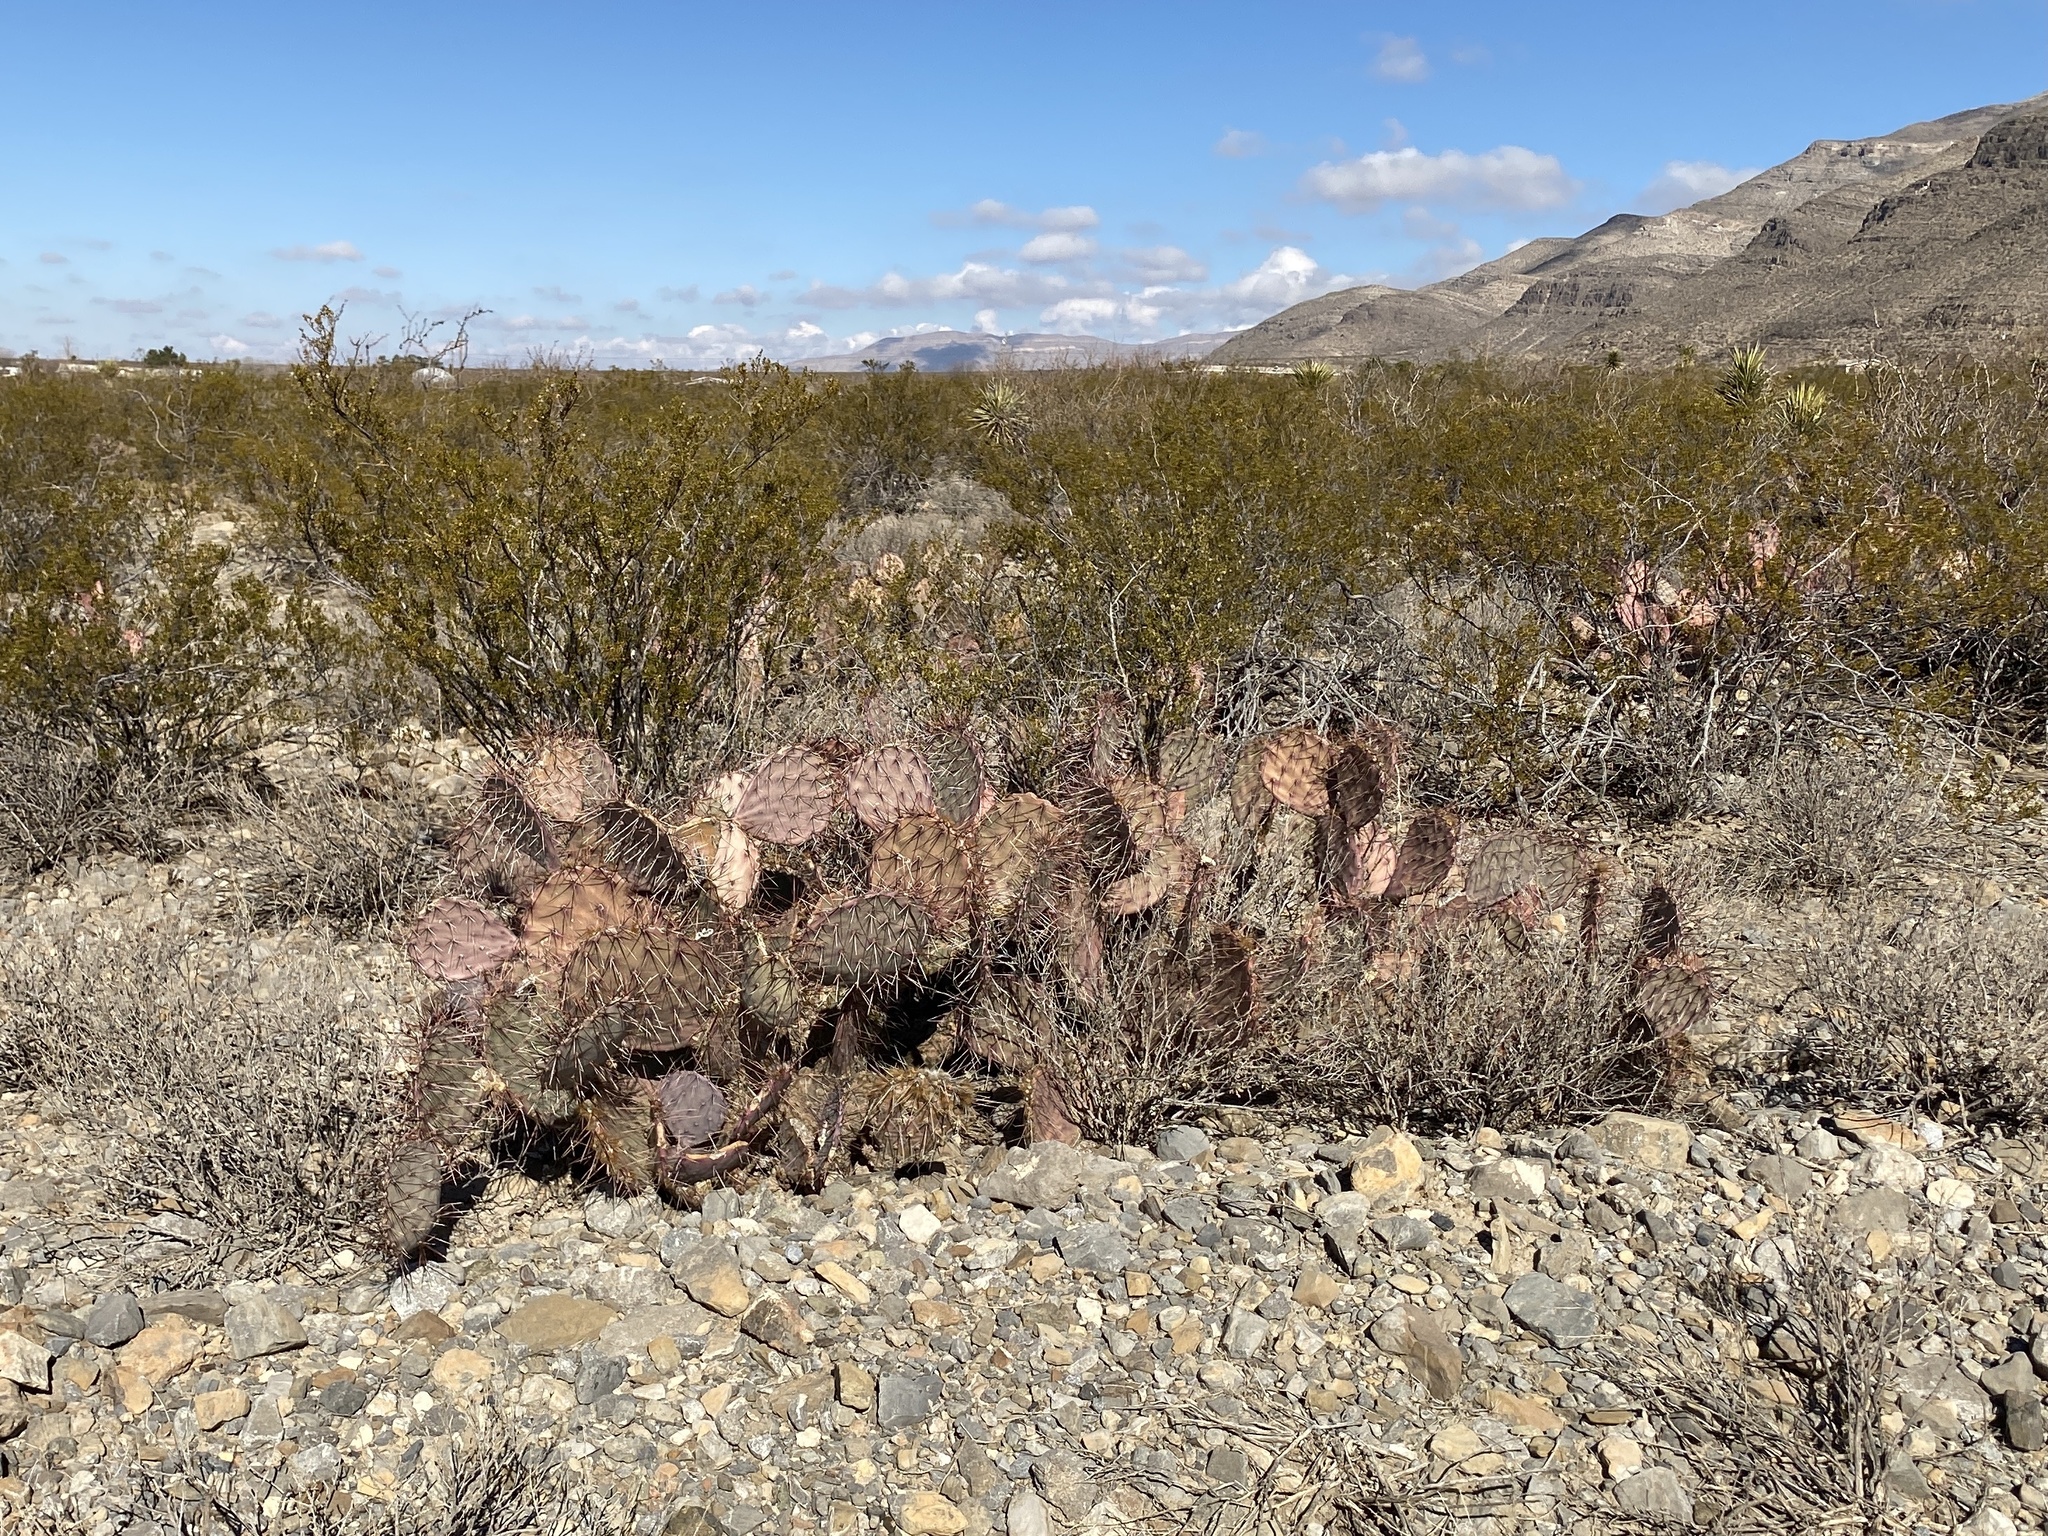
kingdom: Plantae
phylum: Tracheophyta
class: Magnoliopsida
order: Caryophyllales
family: Cactaceae
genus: Opuntia
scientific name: Opuntia macrocentra
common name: Purple prickly-pear
